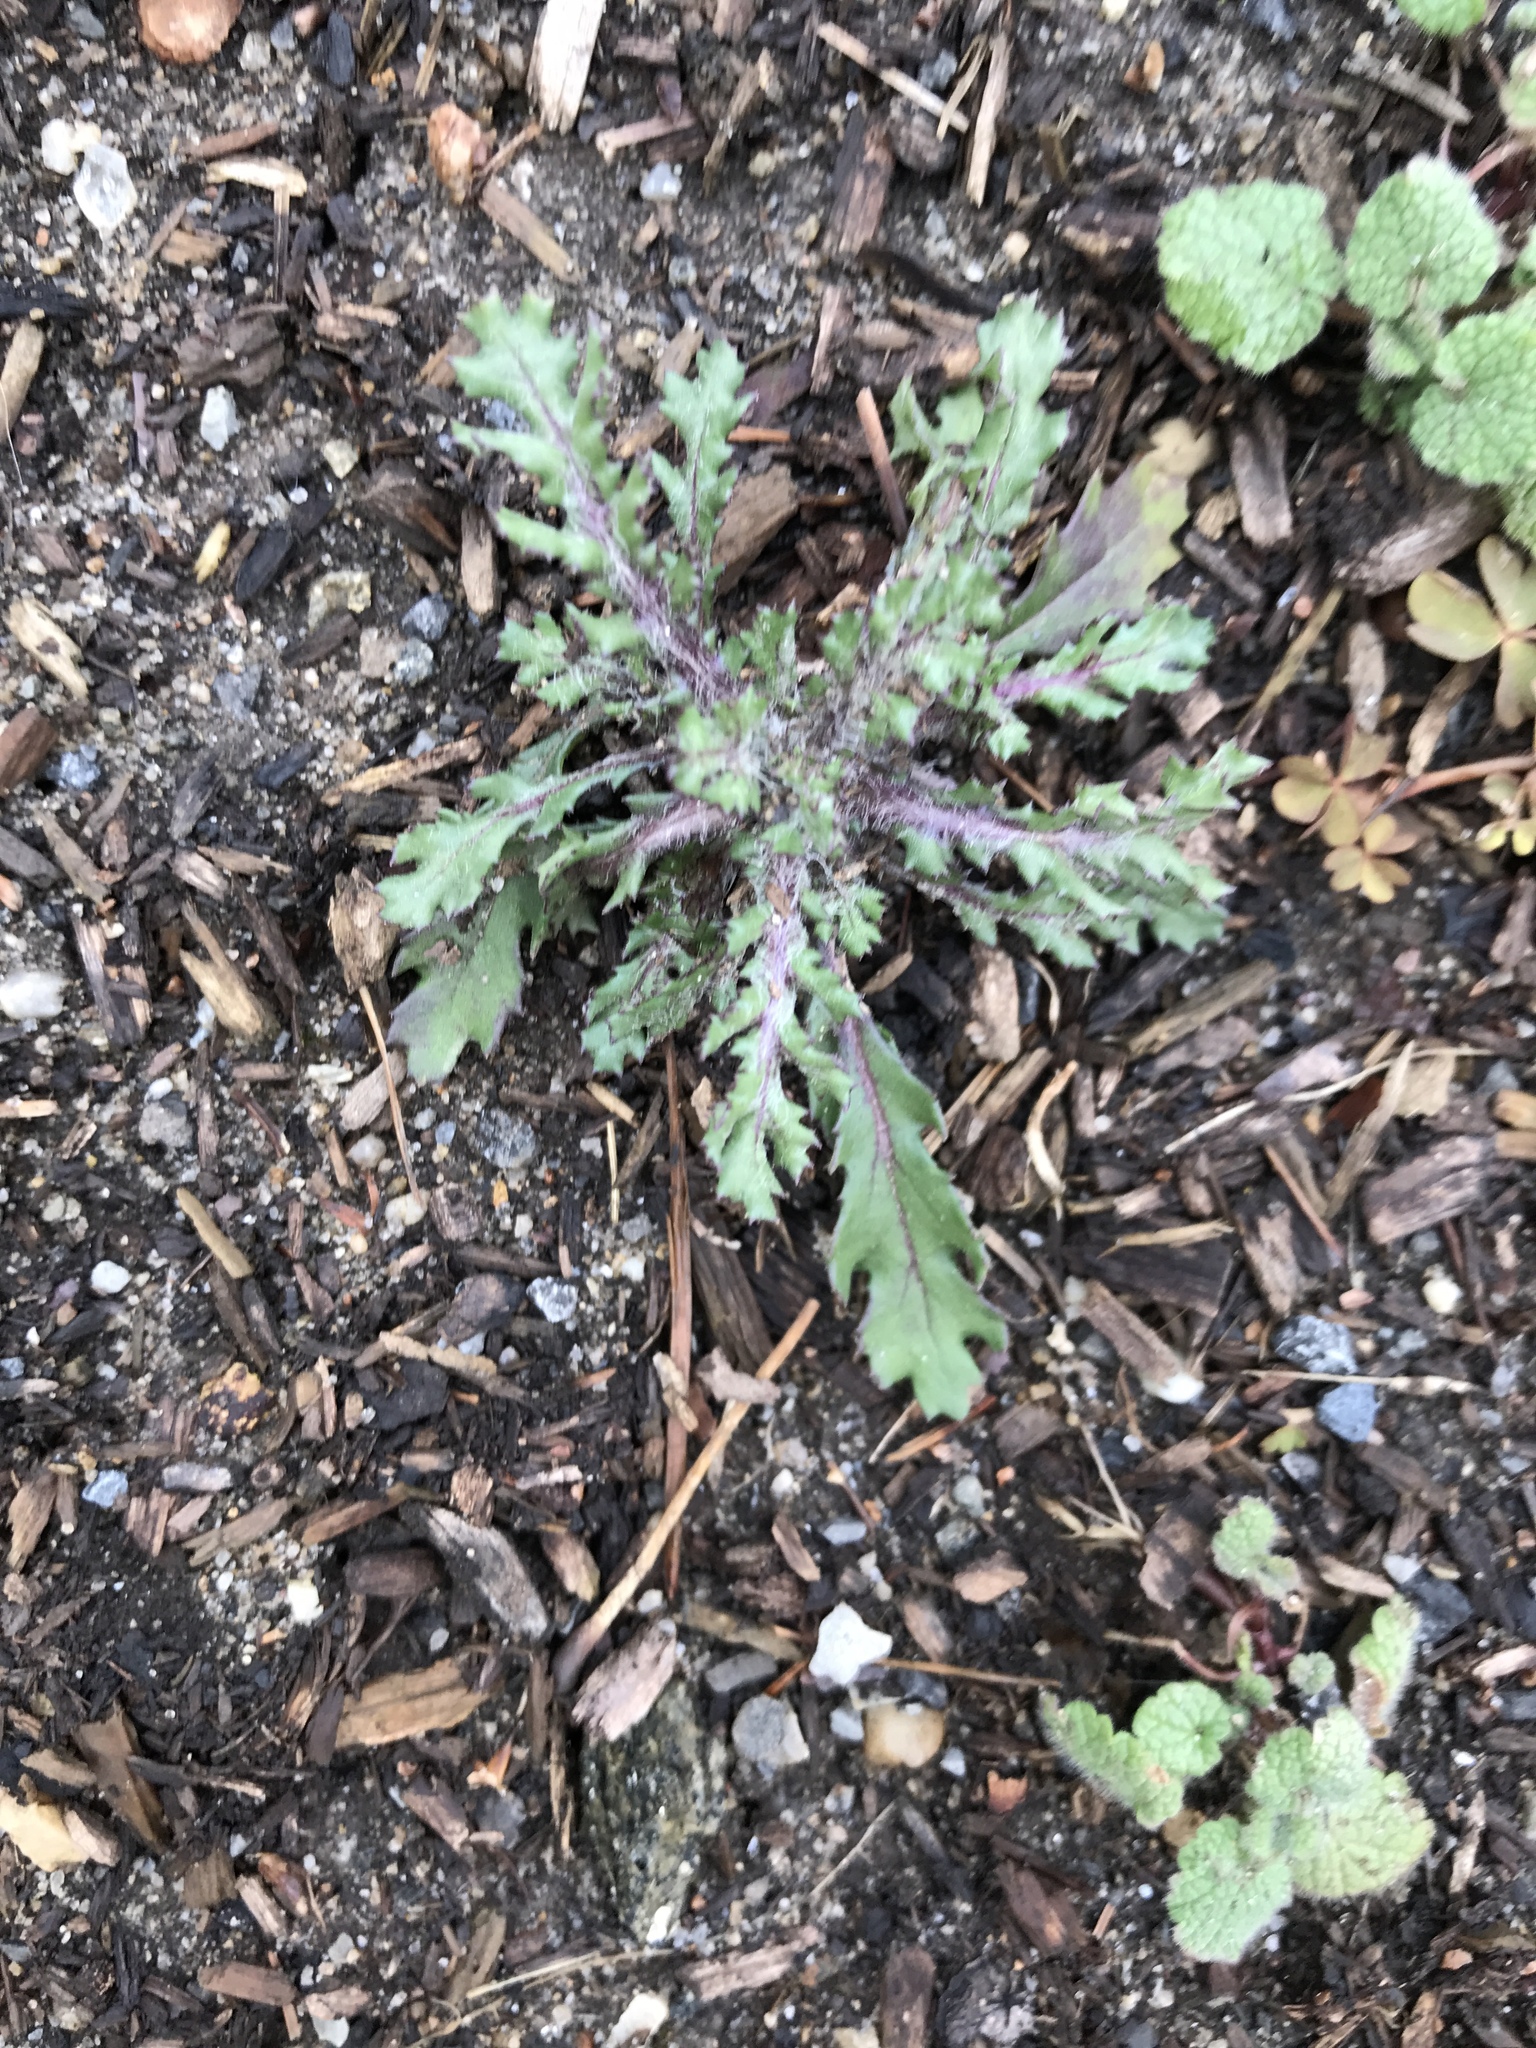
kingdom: Plantae
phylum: Tracheophyta
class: Magnoliopsida
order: Asterales
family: Asteraceae
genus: Senecio
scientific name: Senecio vulgaris
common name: Old-man-in-the-spring
